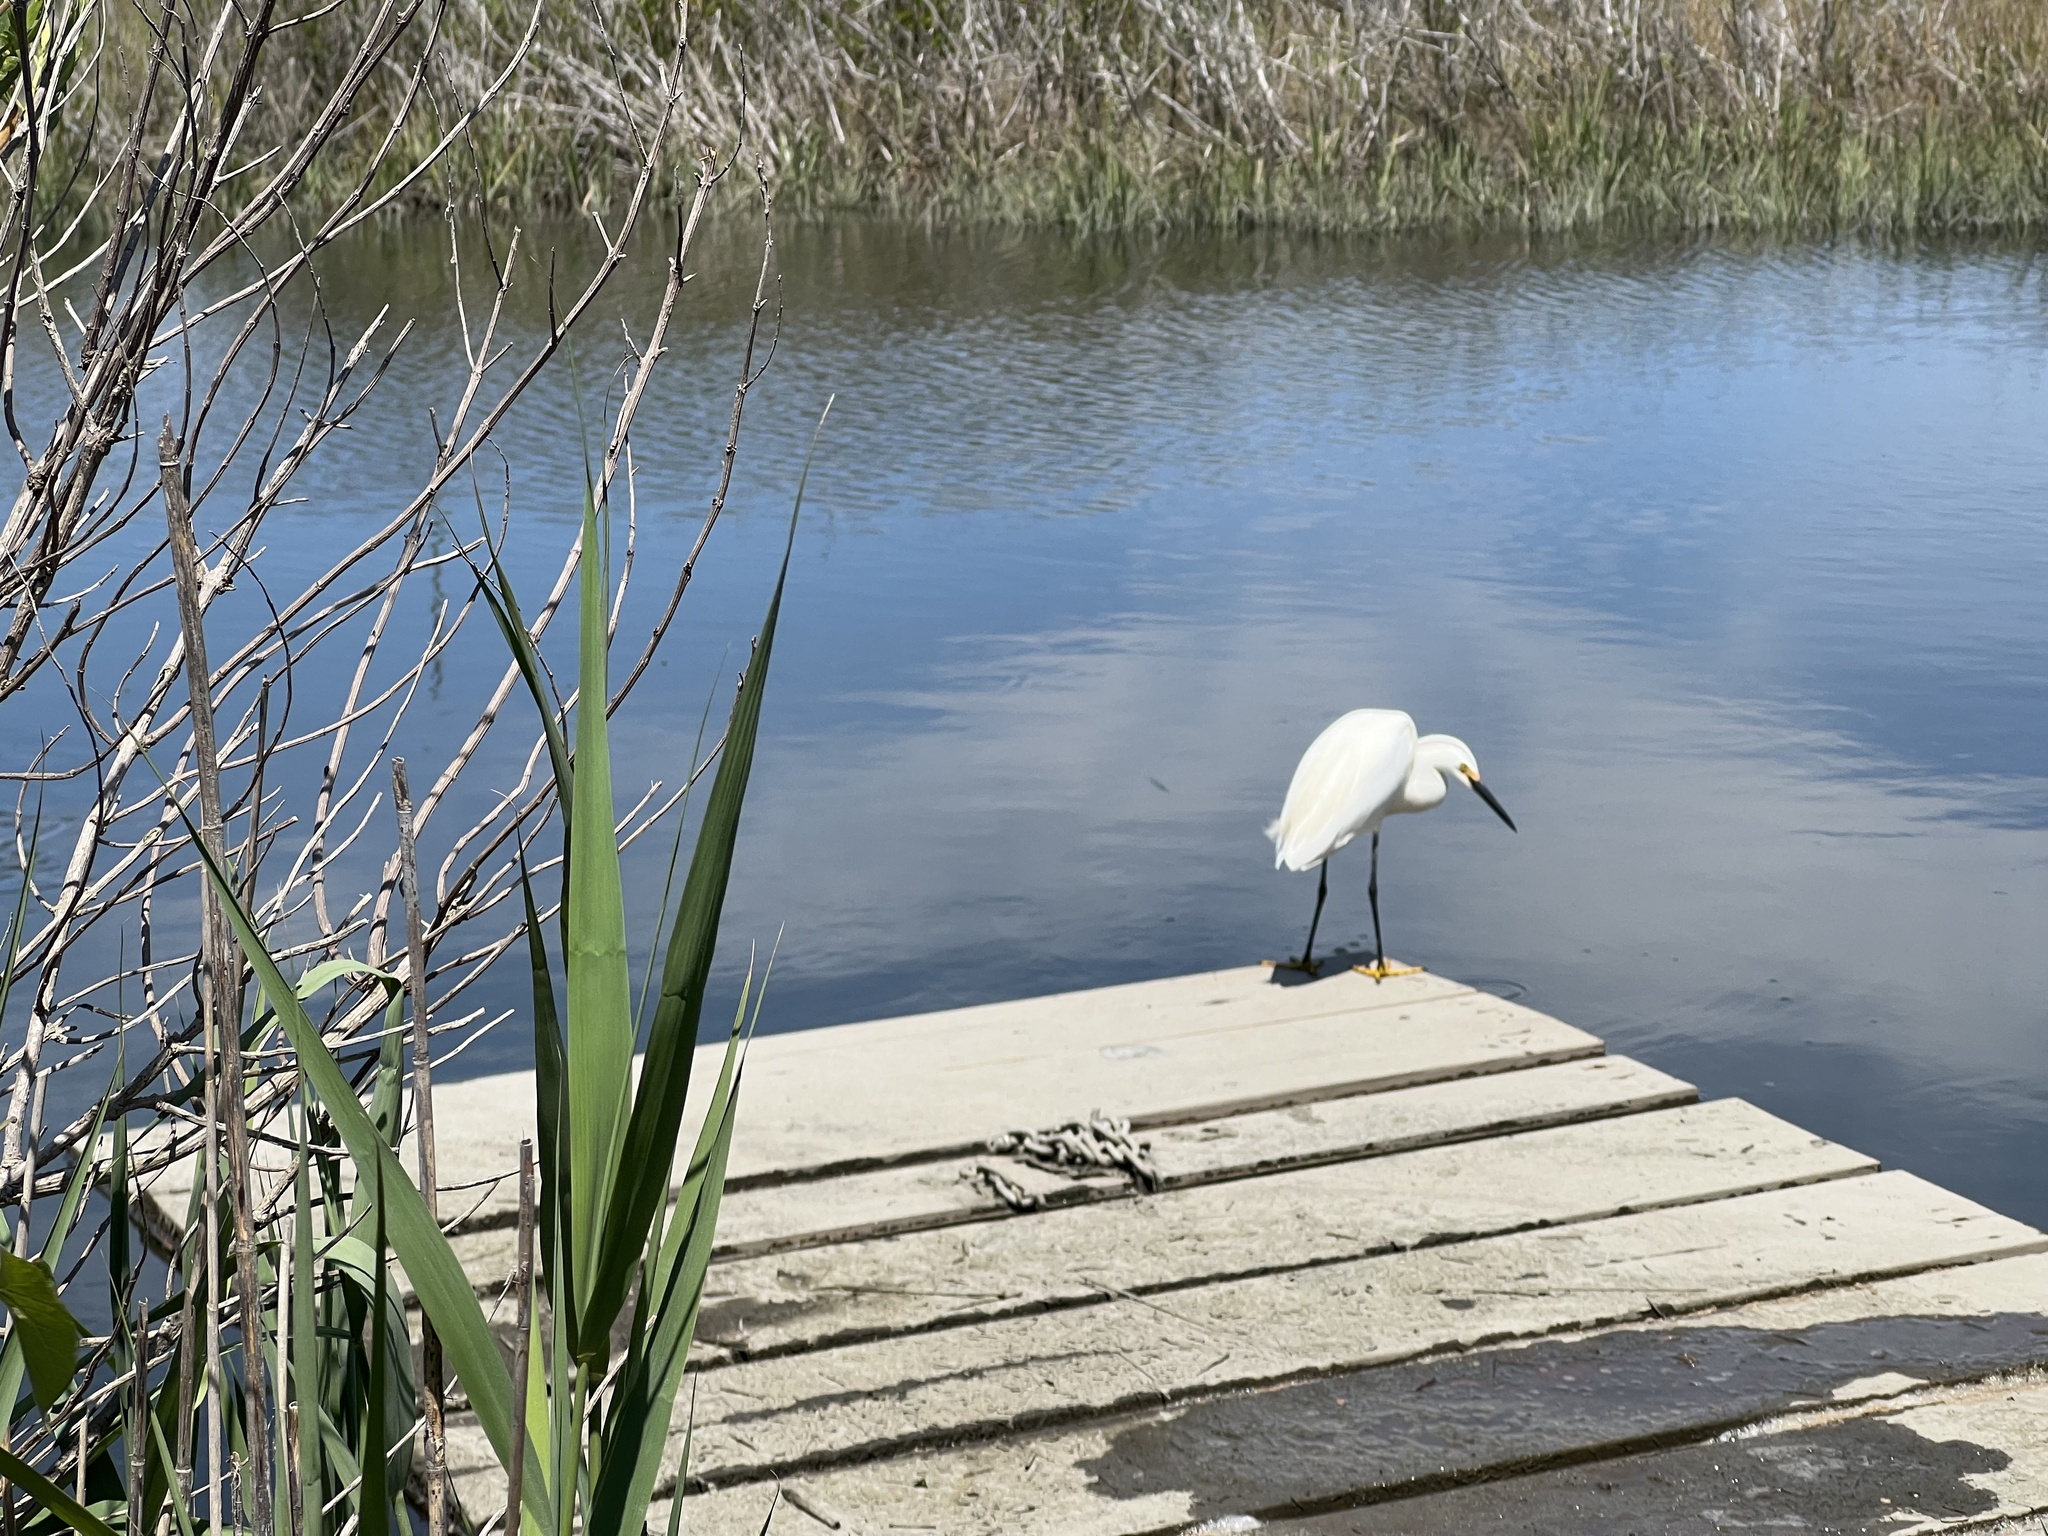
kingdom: Animalia
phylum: Chordata
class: Aves
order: Pelecaniformes
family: Ardeidae
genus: Egretta
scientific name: Egretta thula
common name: Snowy egret
